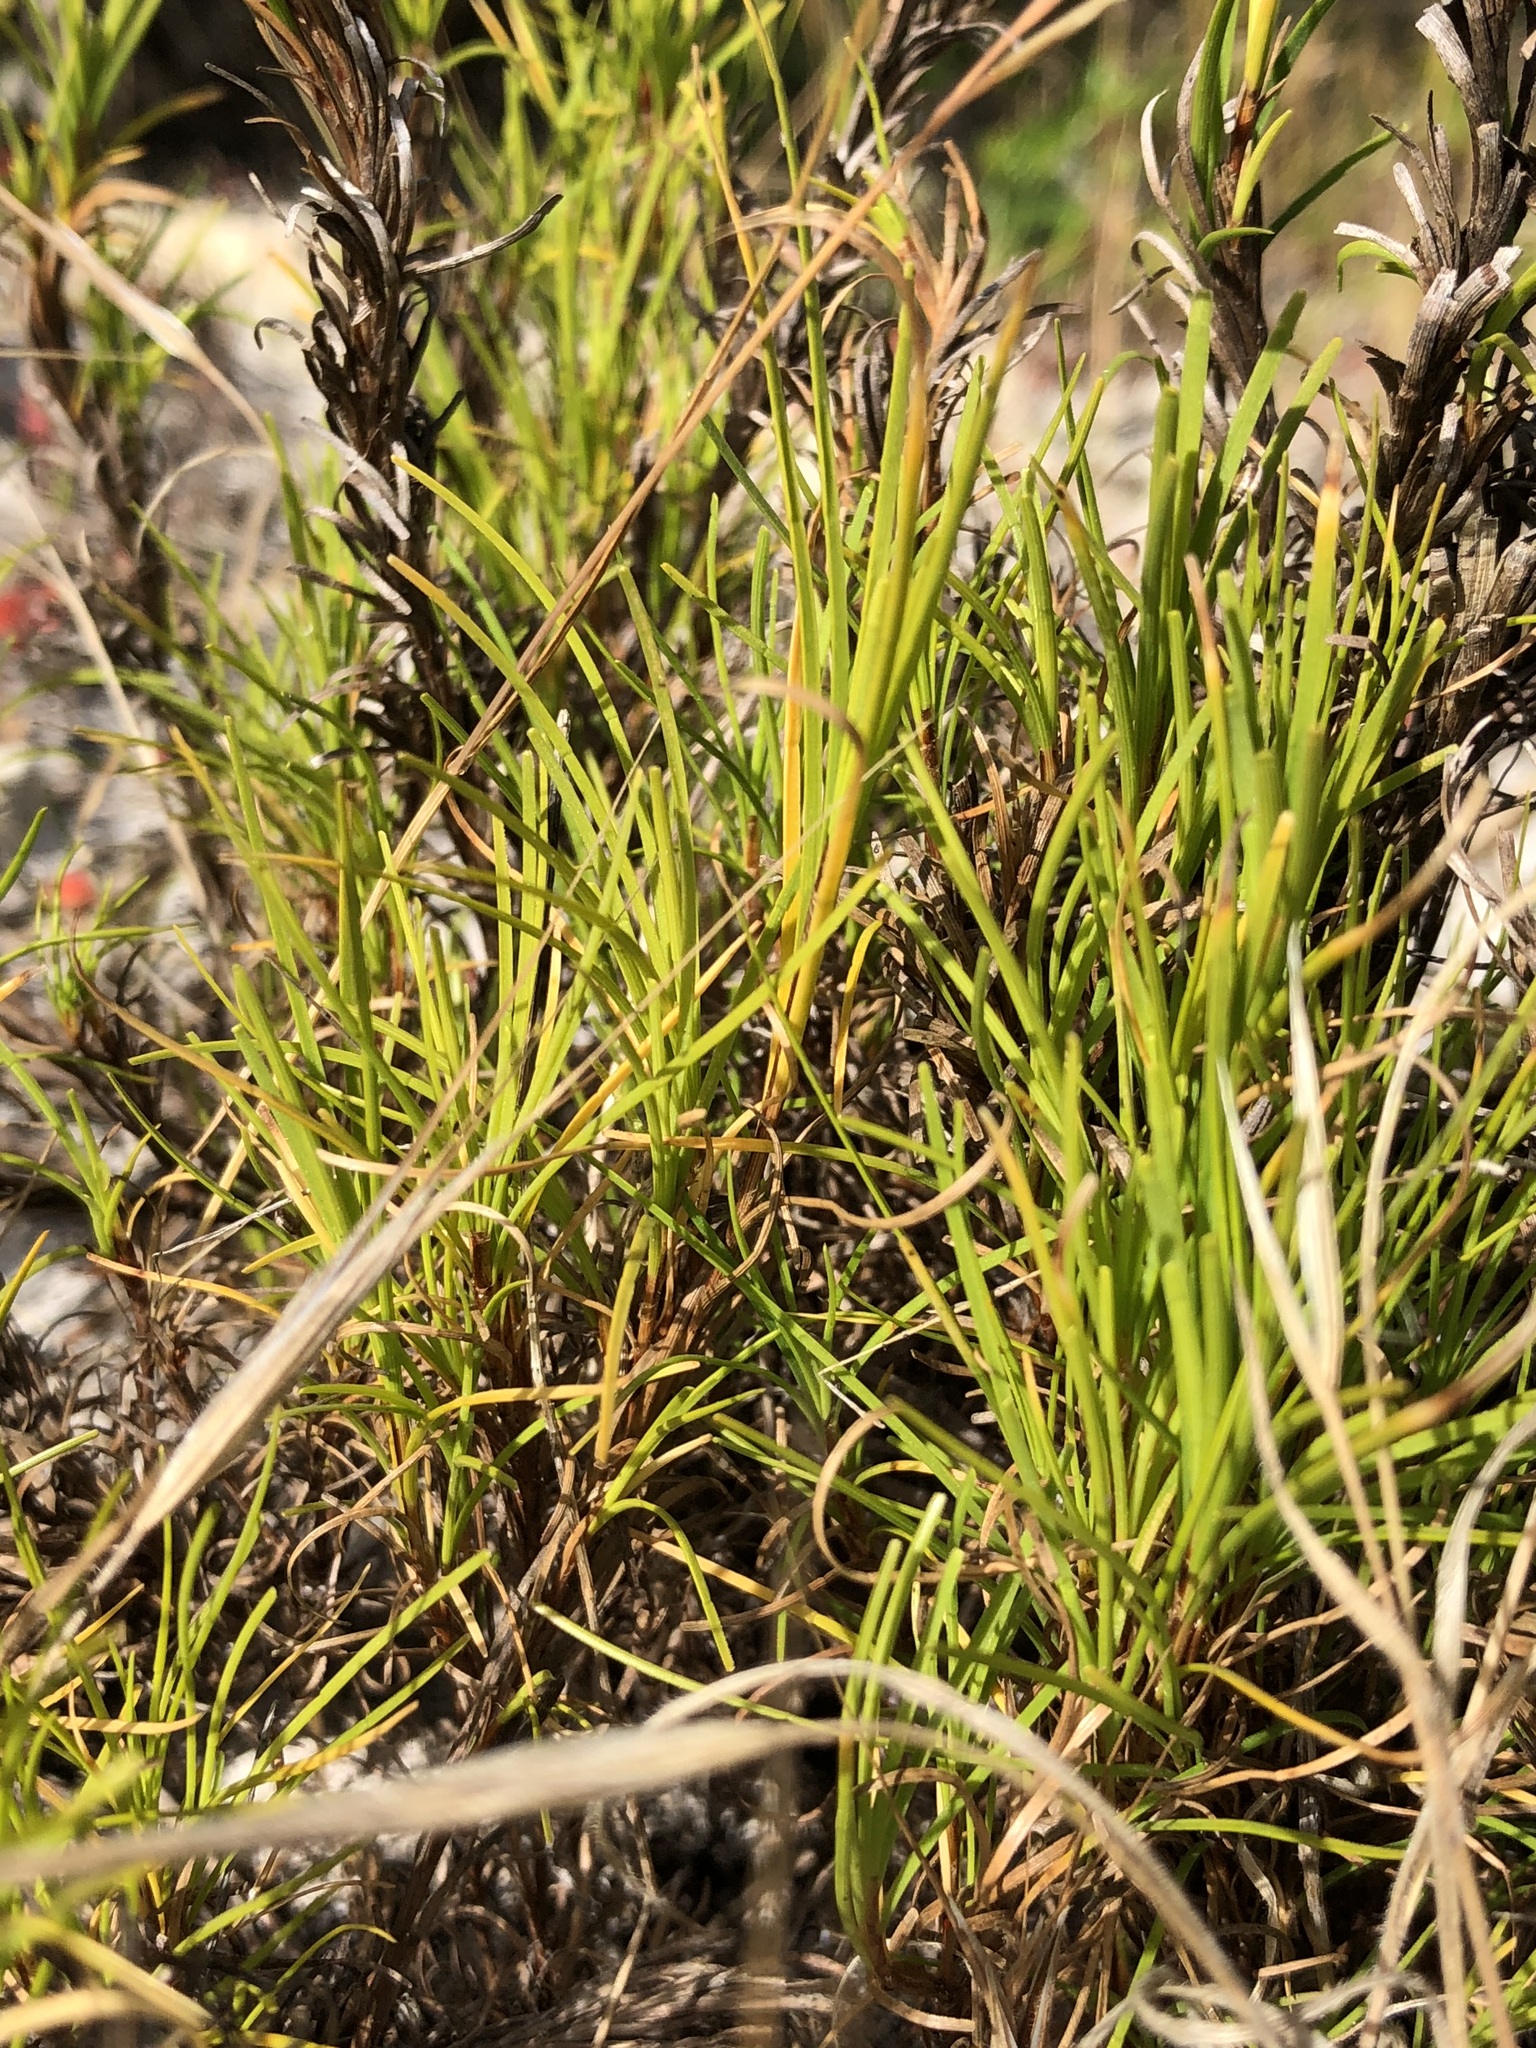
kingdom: Plantae
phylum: Tracheophyta
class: Liliopsida
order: Poales
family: Cyperaceae
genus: Ficinia
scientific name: Ficinia ramosissima
